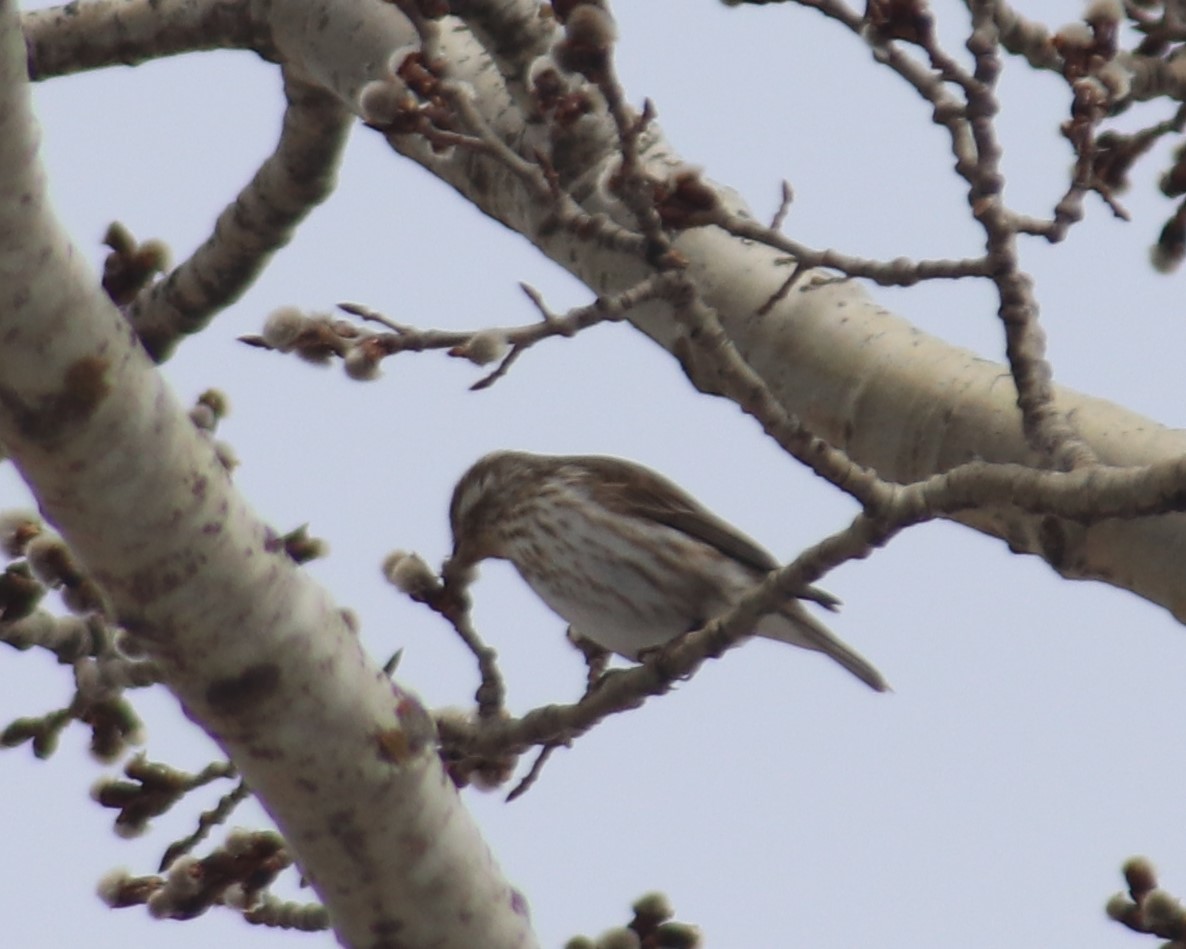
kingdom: Animalia
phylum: Chordata
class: Aves
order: Passeriformes
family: Fringillidae
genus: Haemorhous
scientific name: Haemorhous purpureus
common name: Purple finch
